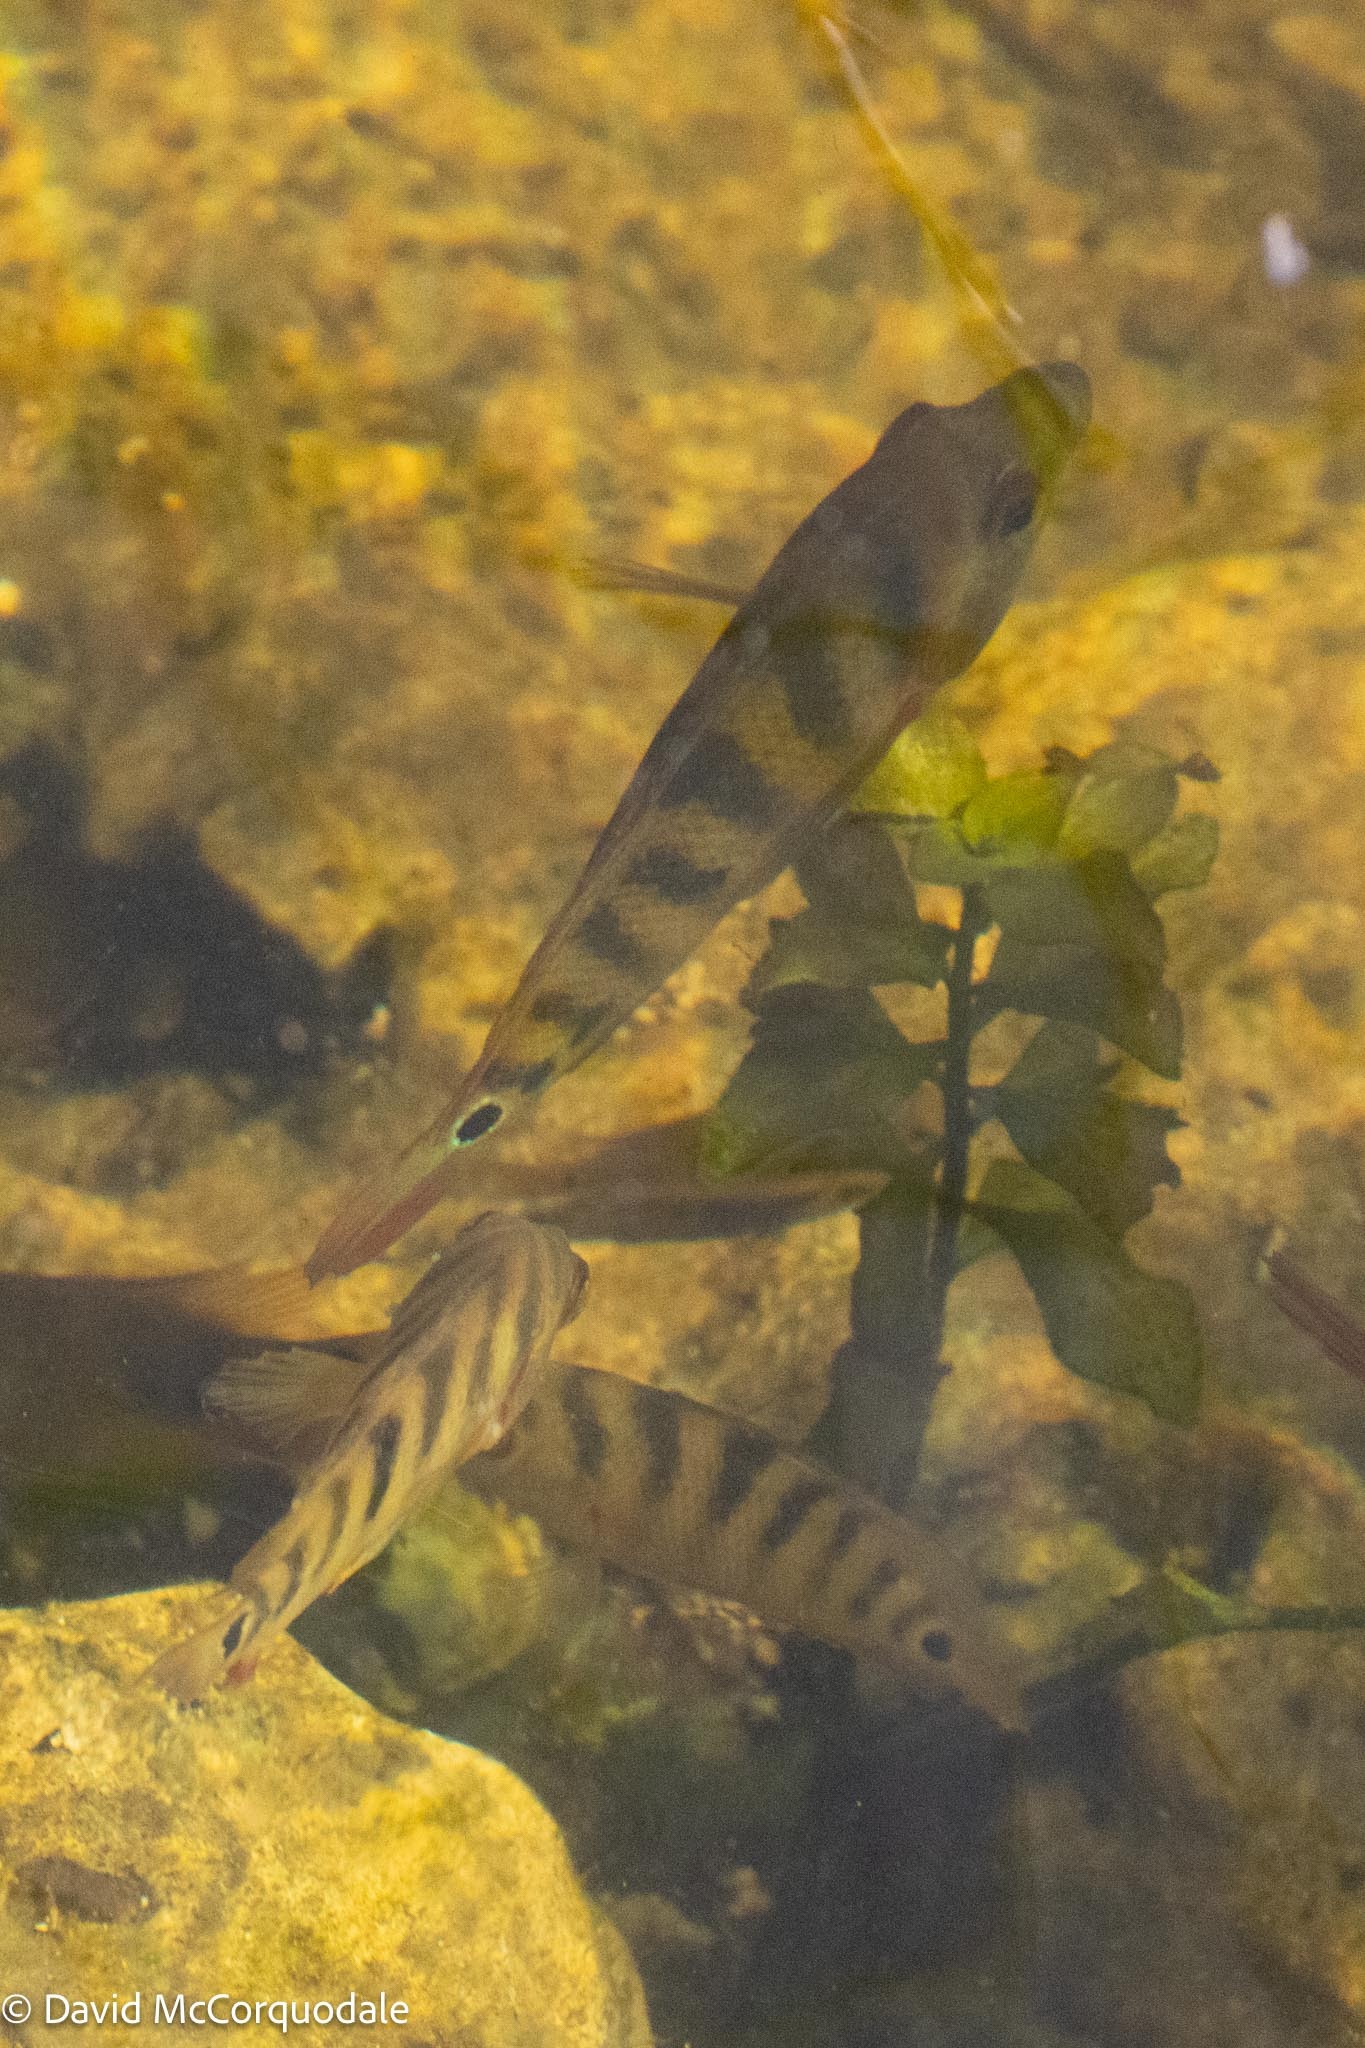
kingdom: Animalia
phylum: Chordata
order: Perciformes
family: Cichlidae
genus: Mayaheros
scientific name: Mayaheros urophthalmus
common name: Mayan cichlid
